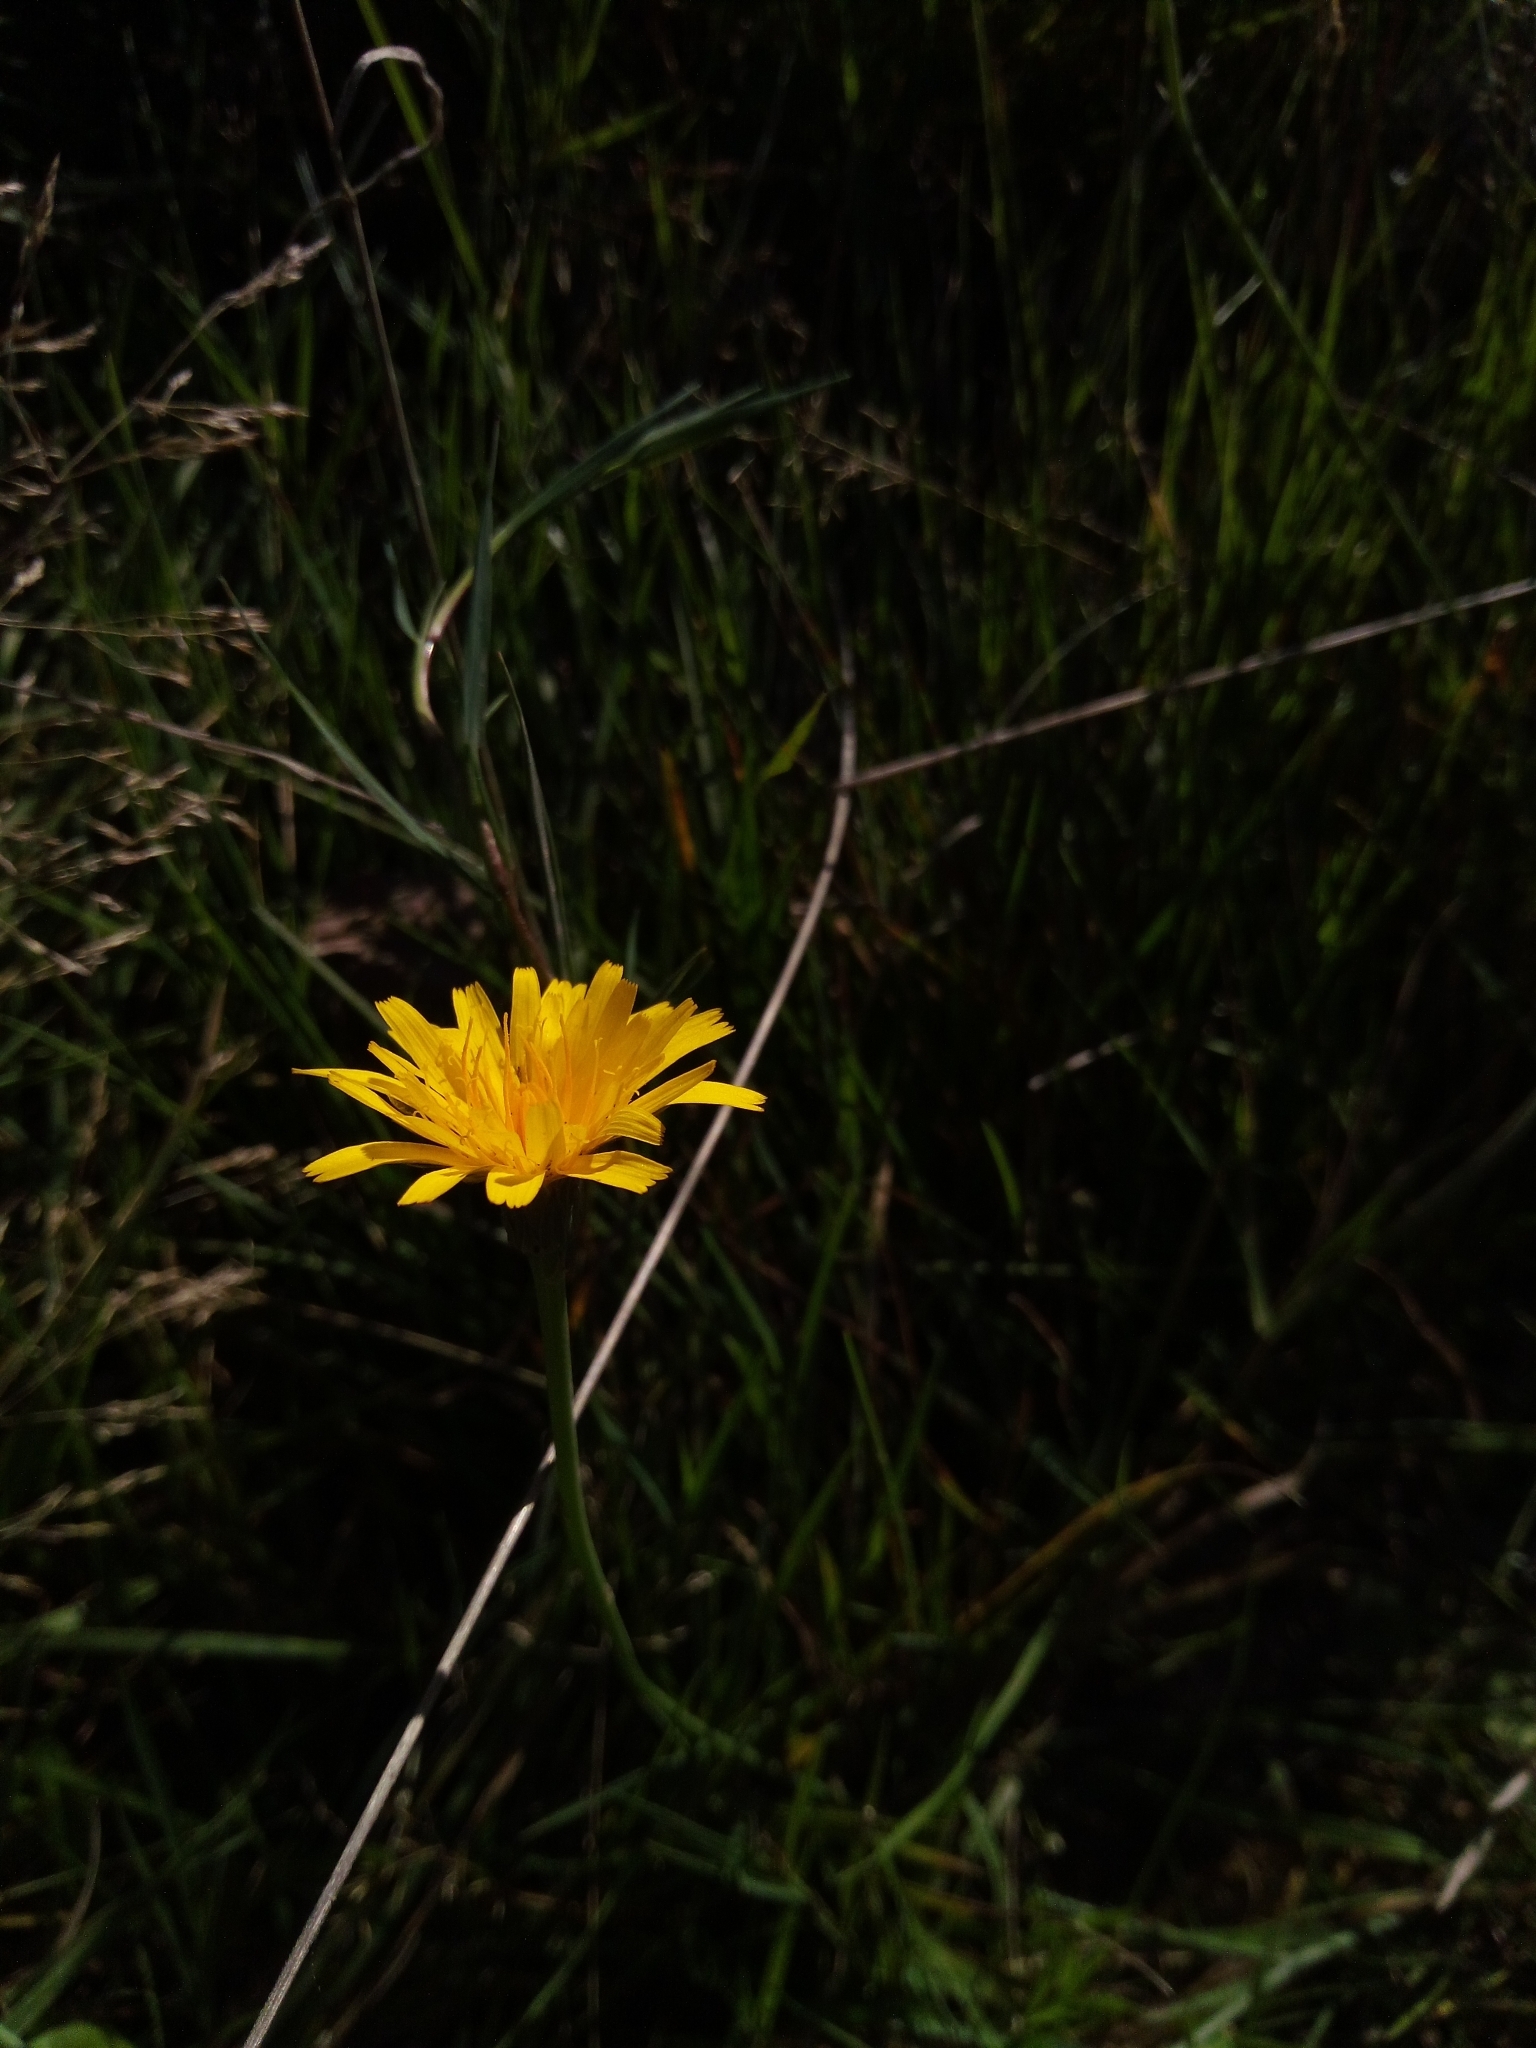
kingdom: Plantae
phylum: Tracheophyta
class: Magnoliopsida
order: Asterales
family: Asteraceae
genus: Hypochaeris
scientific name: Hypochaeris radicata
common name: Flatweed
